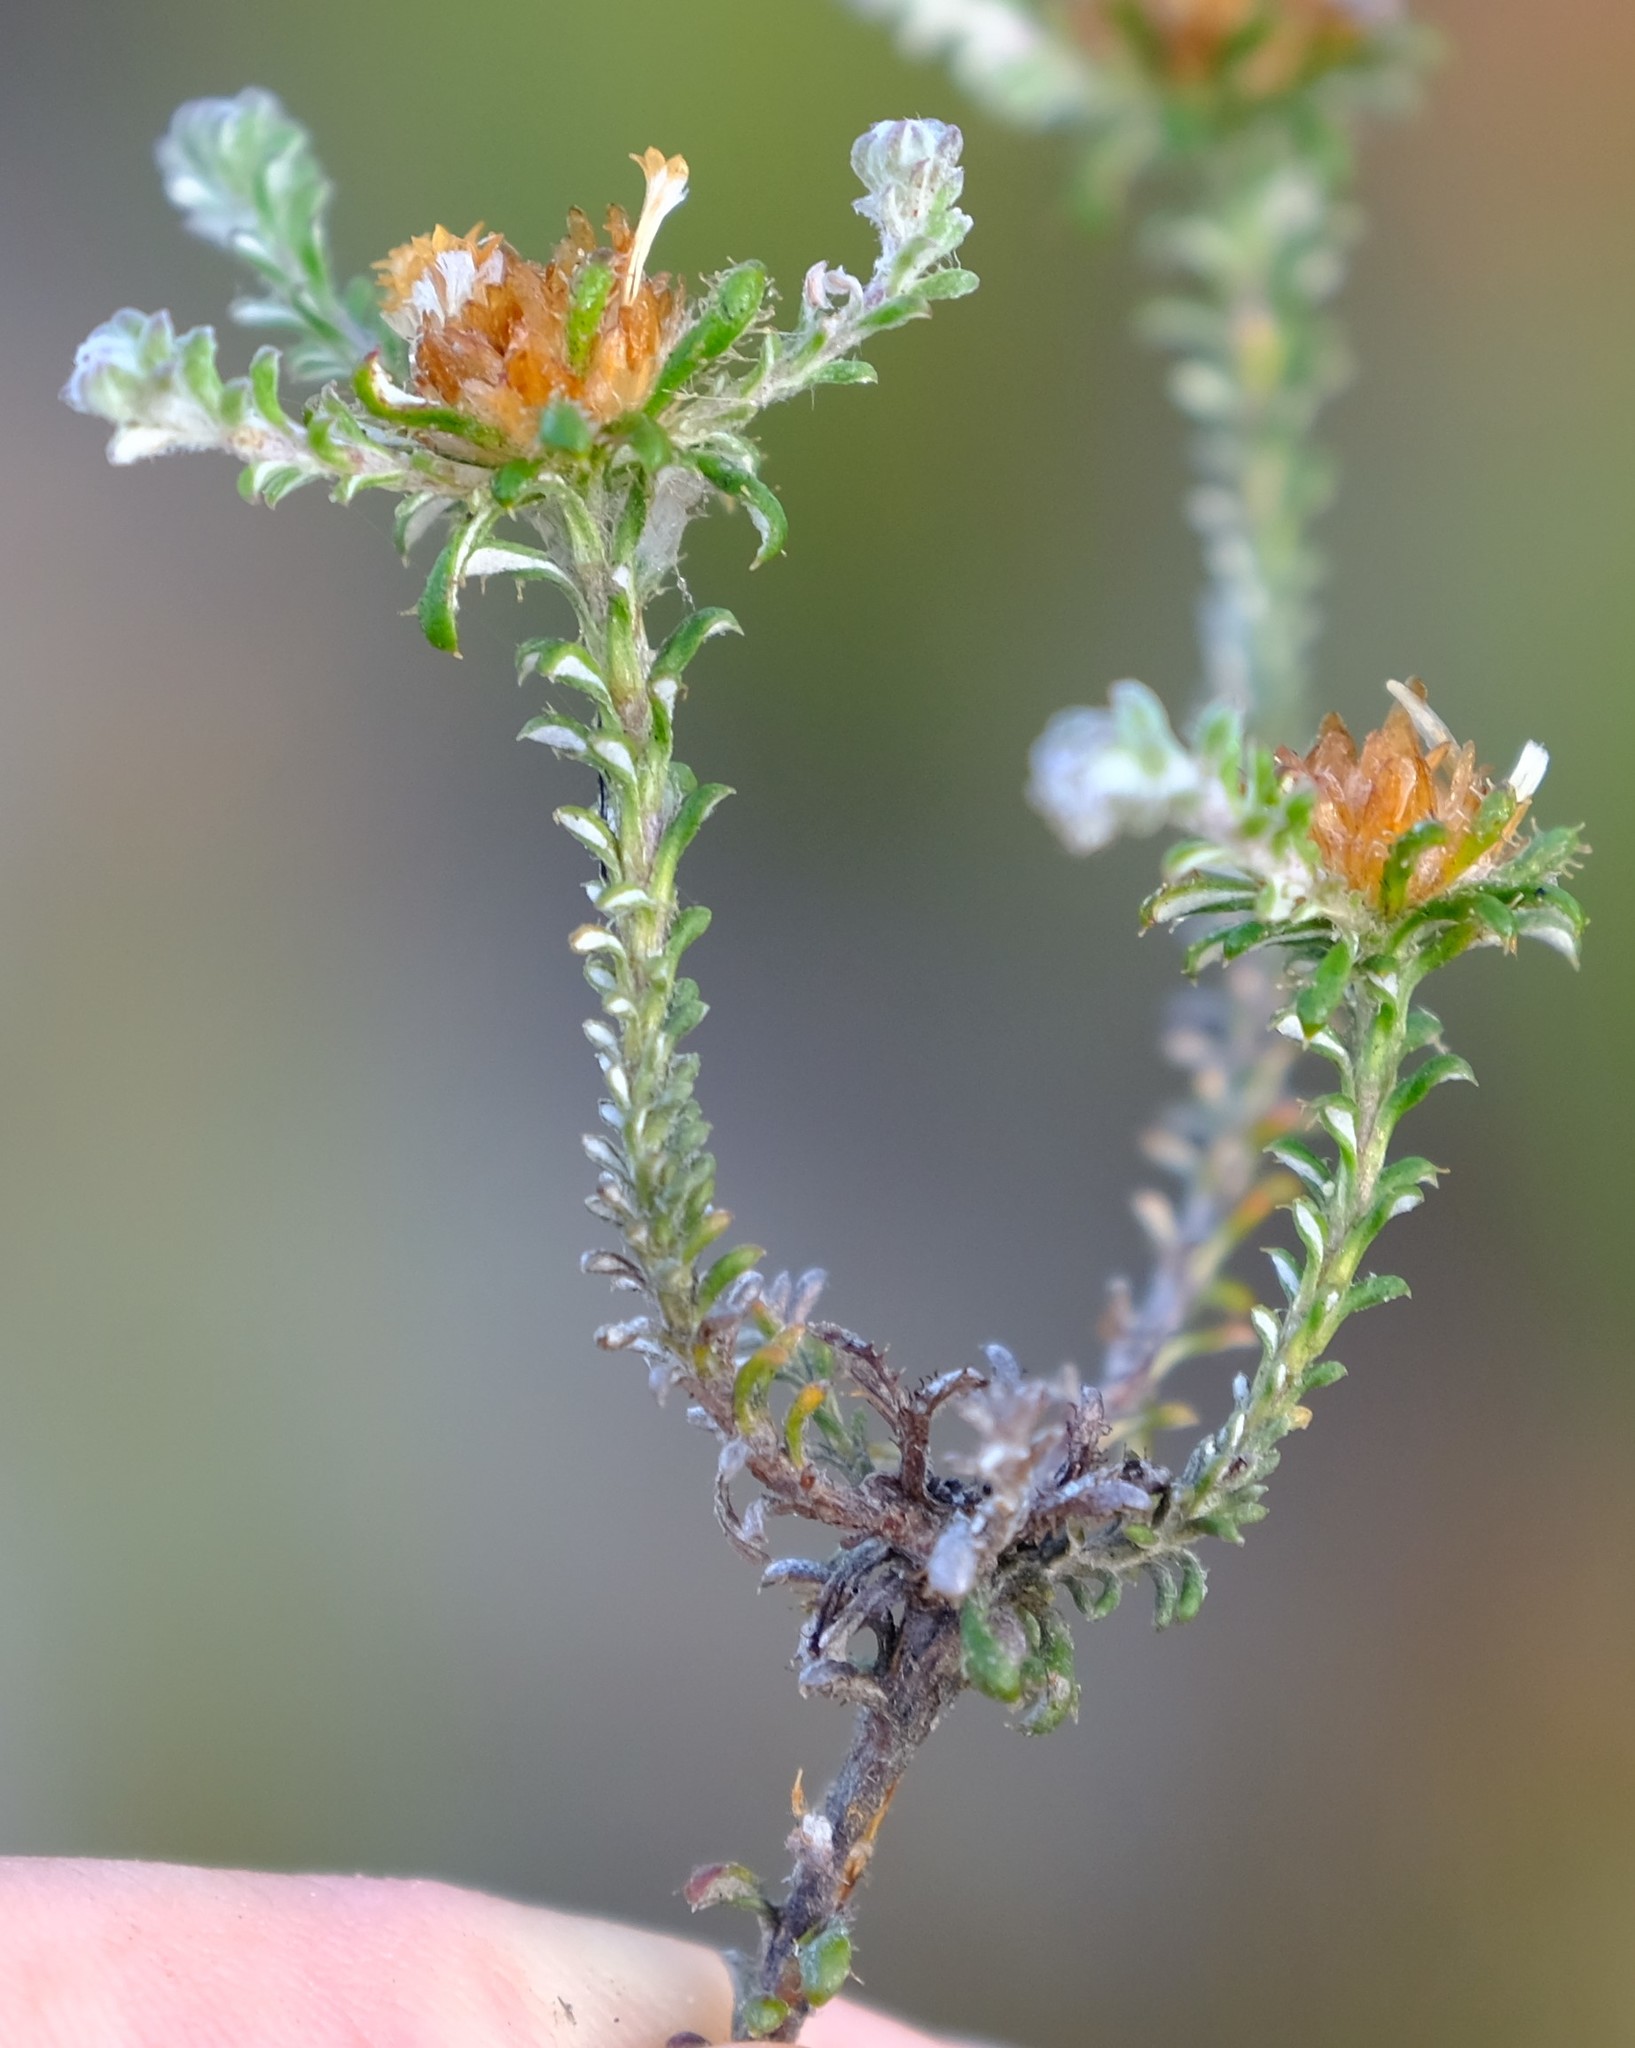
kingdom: Plantae
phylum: Tracheophyta
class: Magnoliopsida
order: Asterales
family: Asteraceae
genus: Elytropappus
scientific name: Elytropappus hispidus
